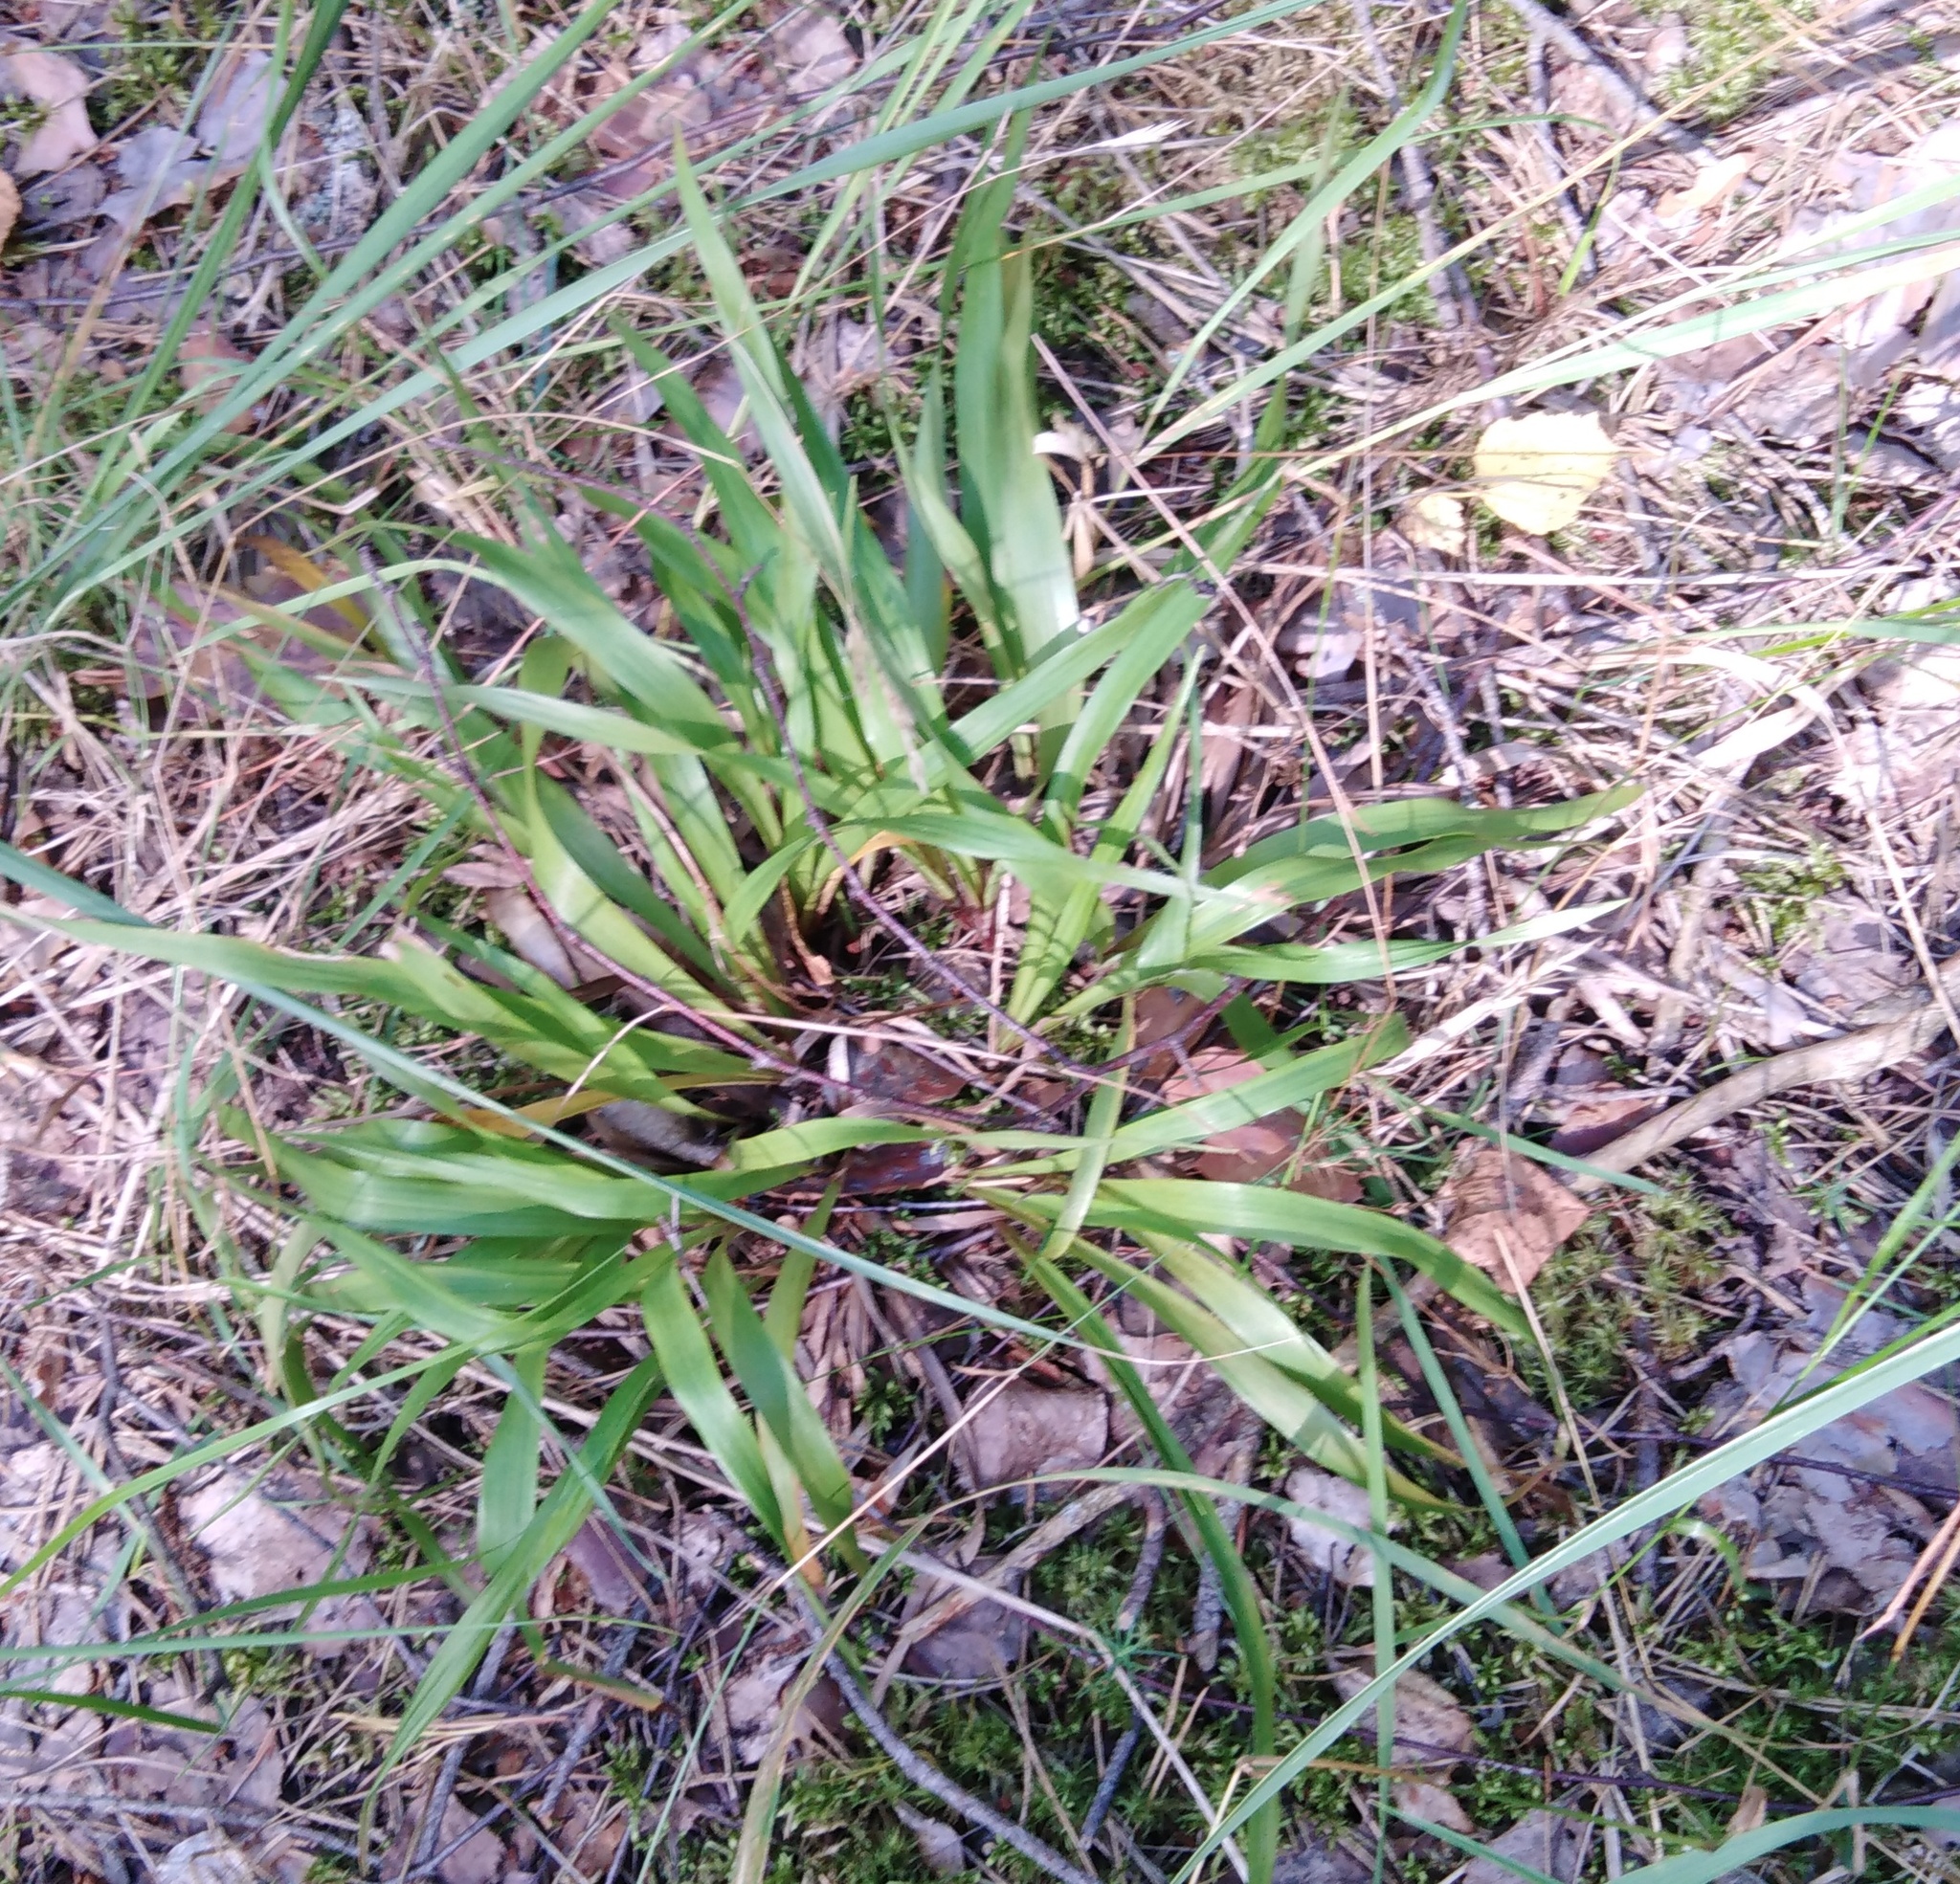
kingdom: Plantae
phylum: Tracheophyta
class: Liliopsida
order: Poales
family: Juncaceae
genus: Luzula
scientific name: Luzula pilosa
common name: Hairy wood-rush
